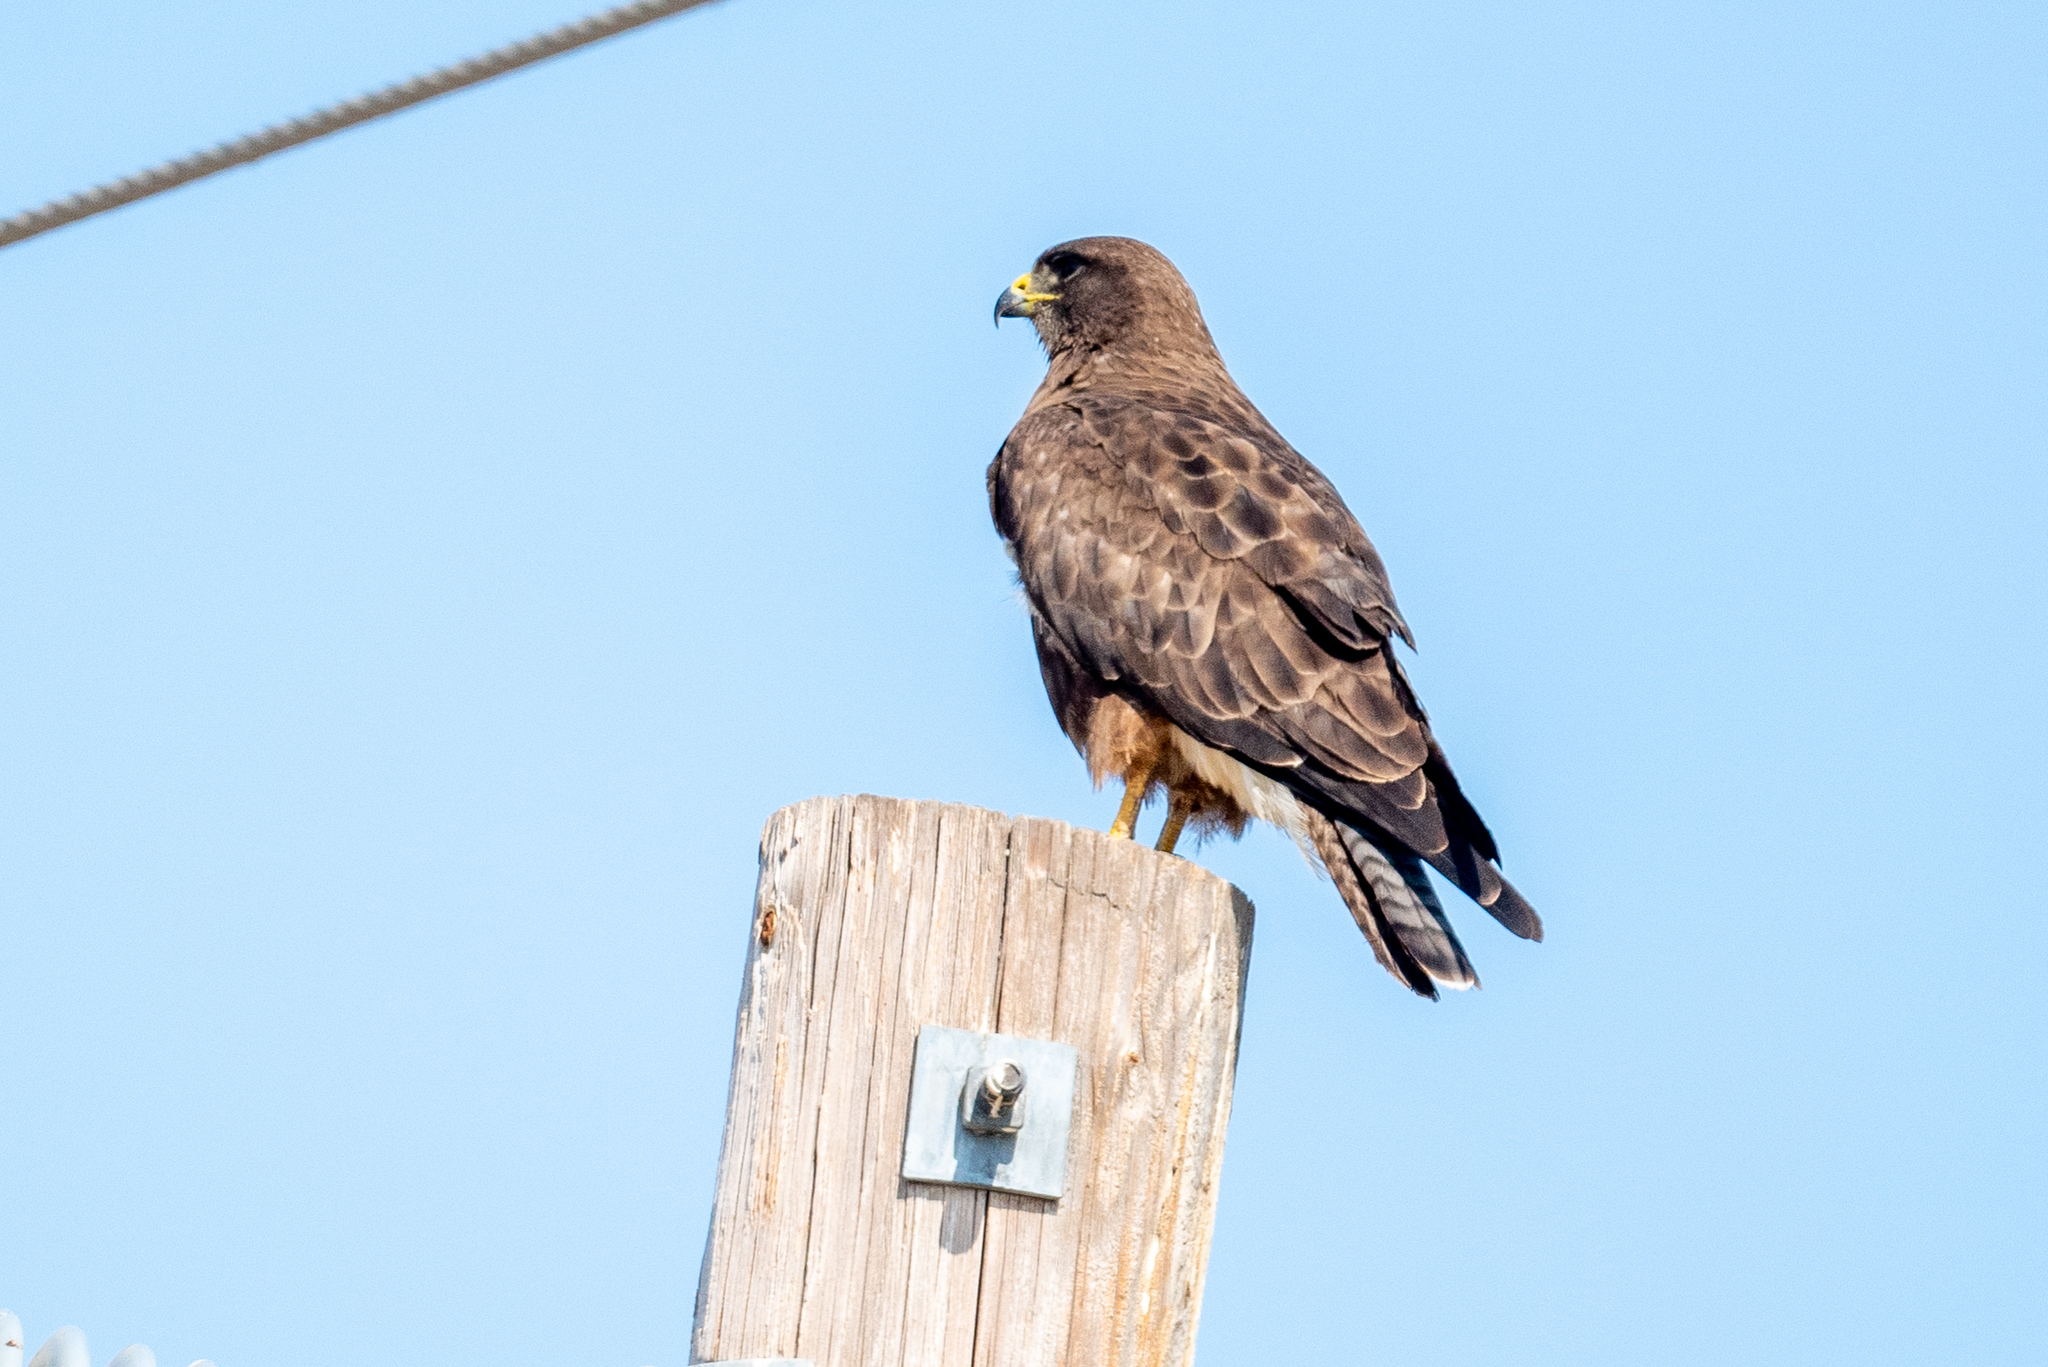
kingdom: Animalia
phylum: Chordata
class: Aves
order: Accipitriformes
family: Accipitridae
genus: Buteo
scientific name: Buteo swainsoni
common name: Swainson's hawk
